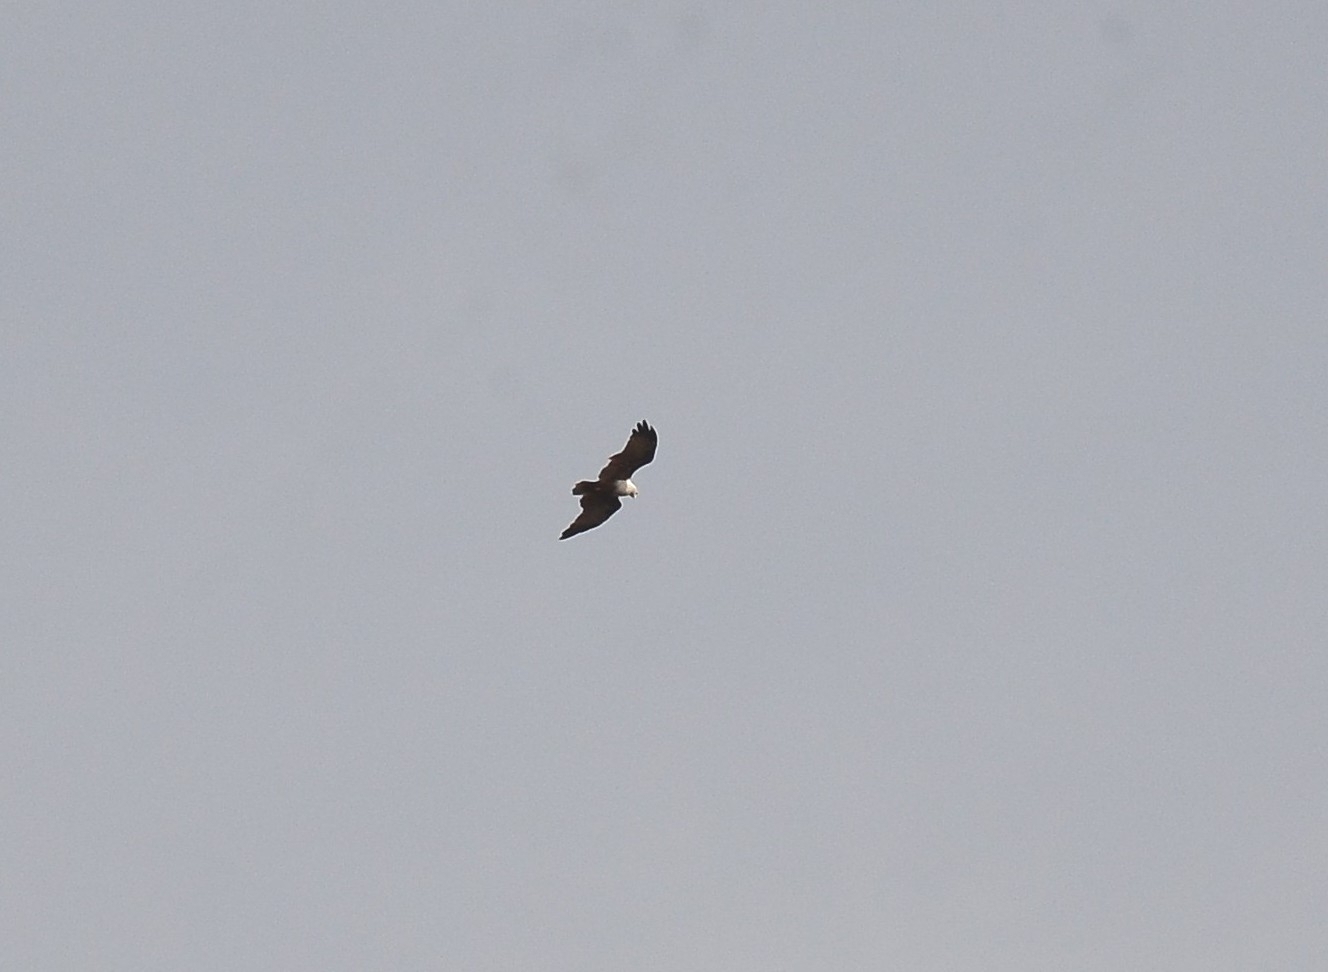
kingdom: Animalia
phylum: Chordata
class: Aves
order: Accipitriformes
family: Accipitridae
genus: Haliastur
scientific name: Haliastur indus
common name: Brahminy kite
